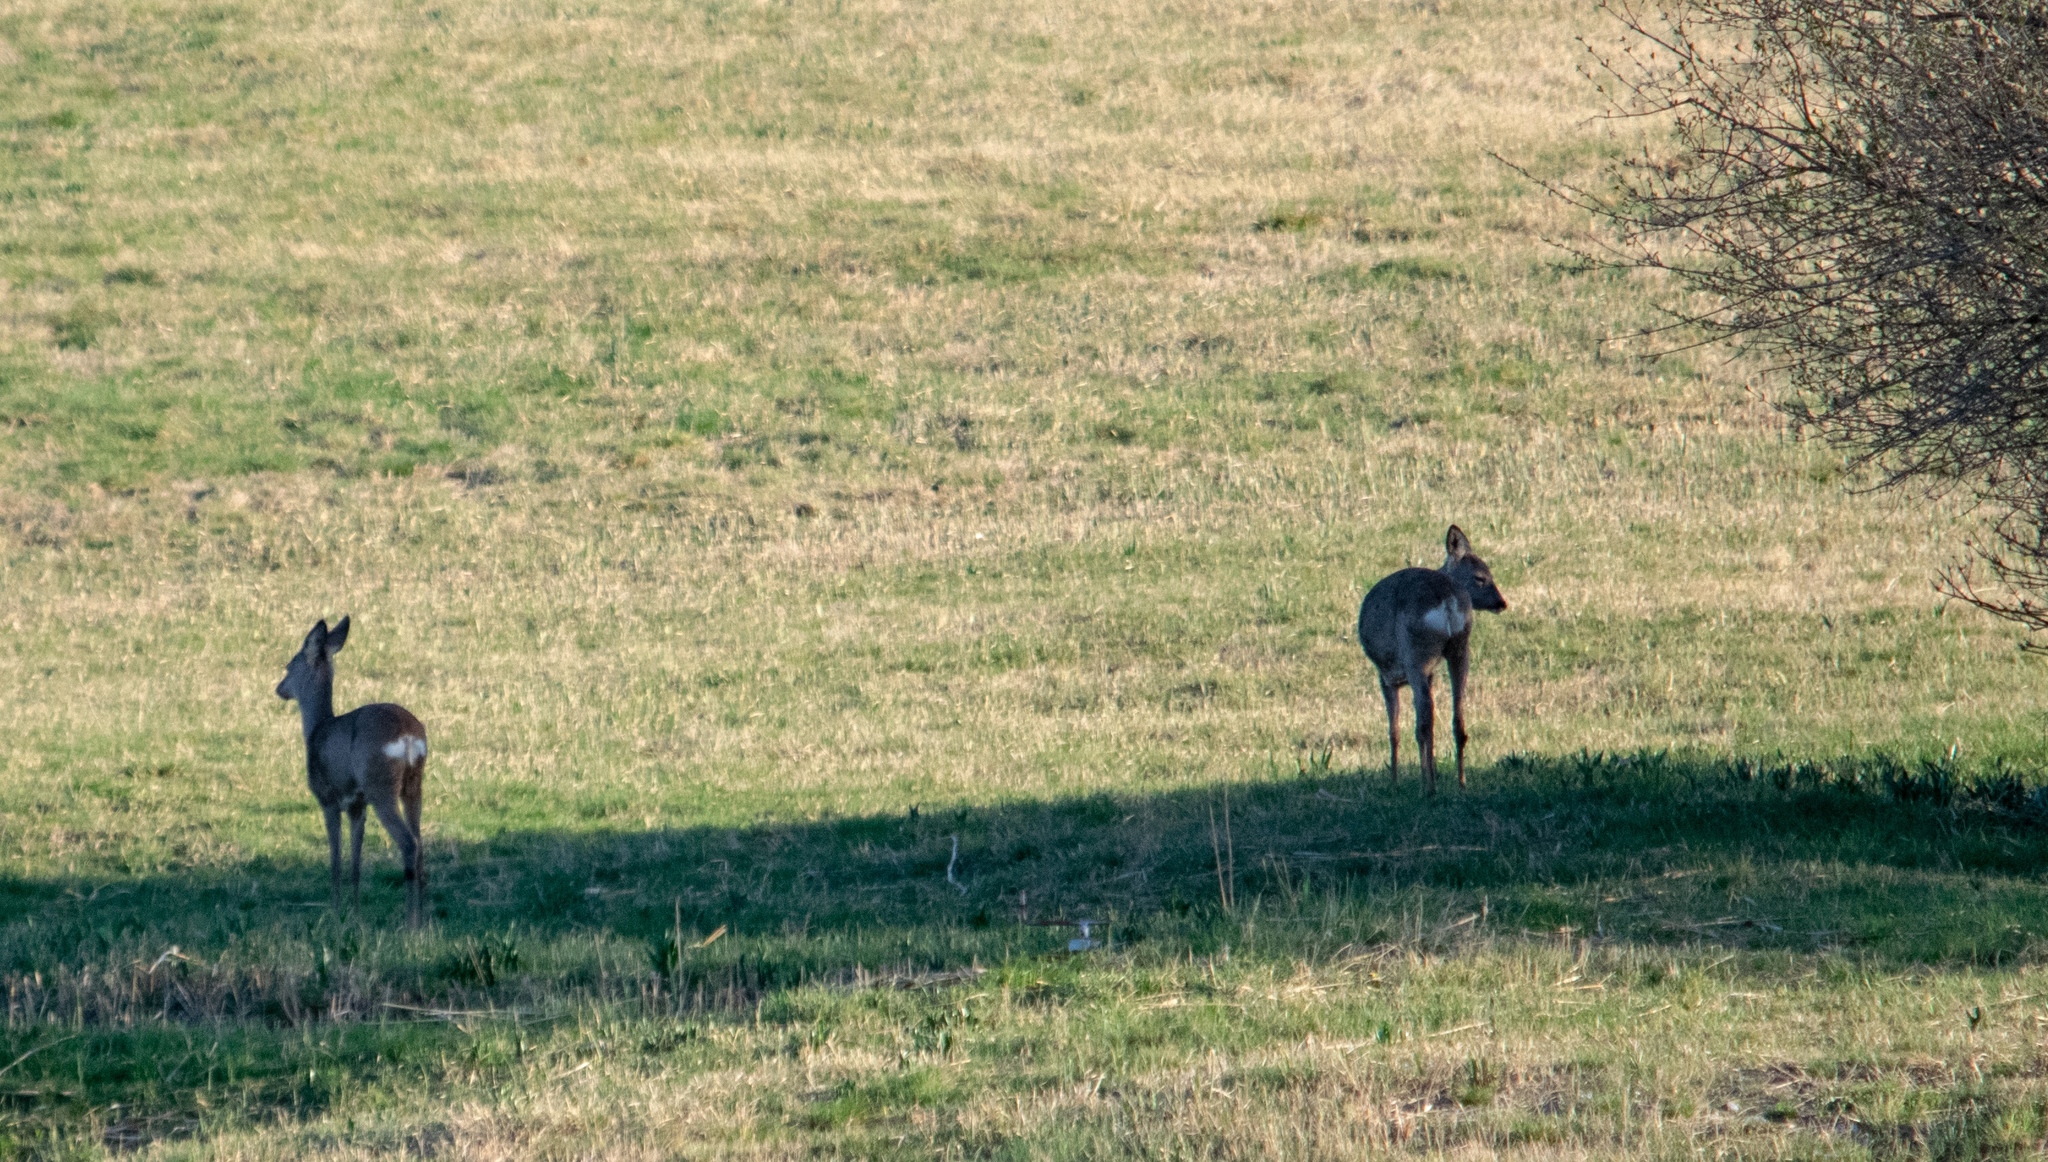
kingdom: Animalia
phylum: Chordata
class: Mammalia
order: Artiodactyla
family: Cervidae
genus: Capreolus
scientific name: Capreolus capreolus
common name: Western roe deer
